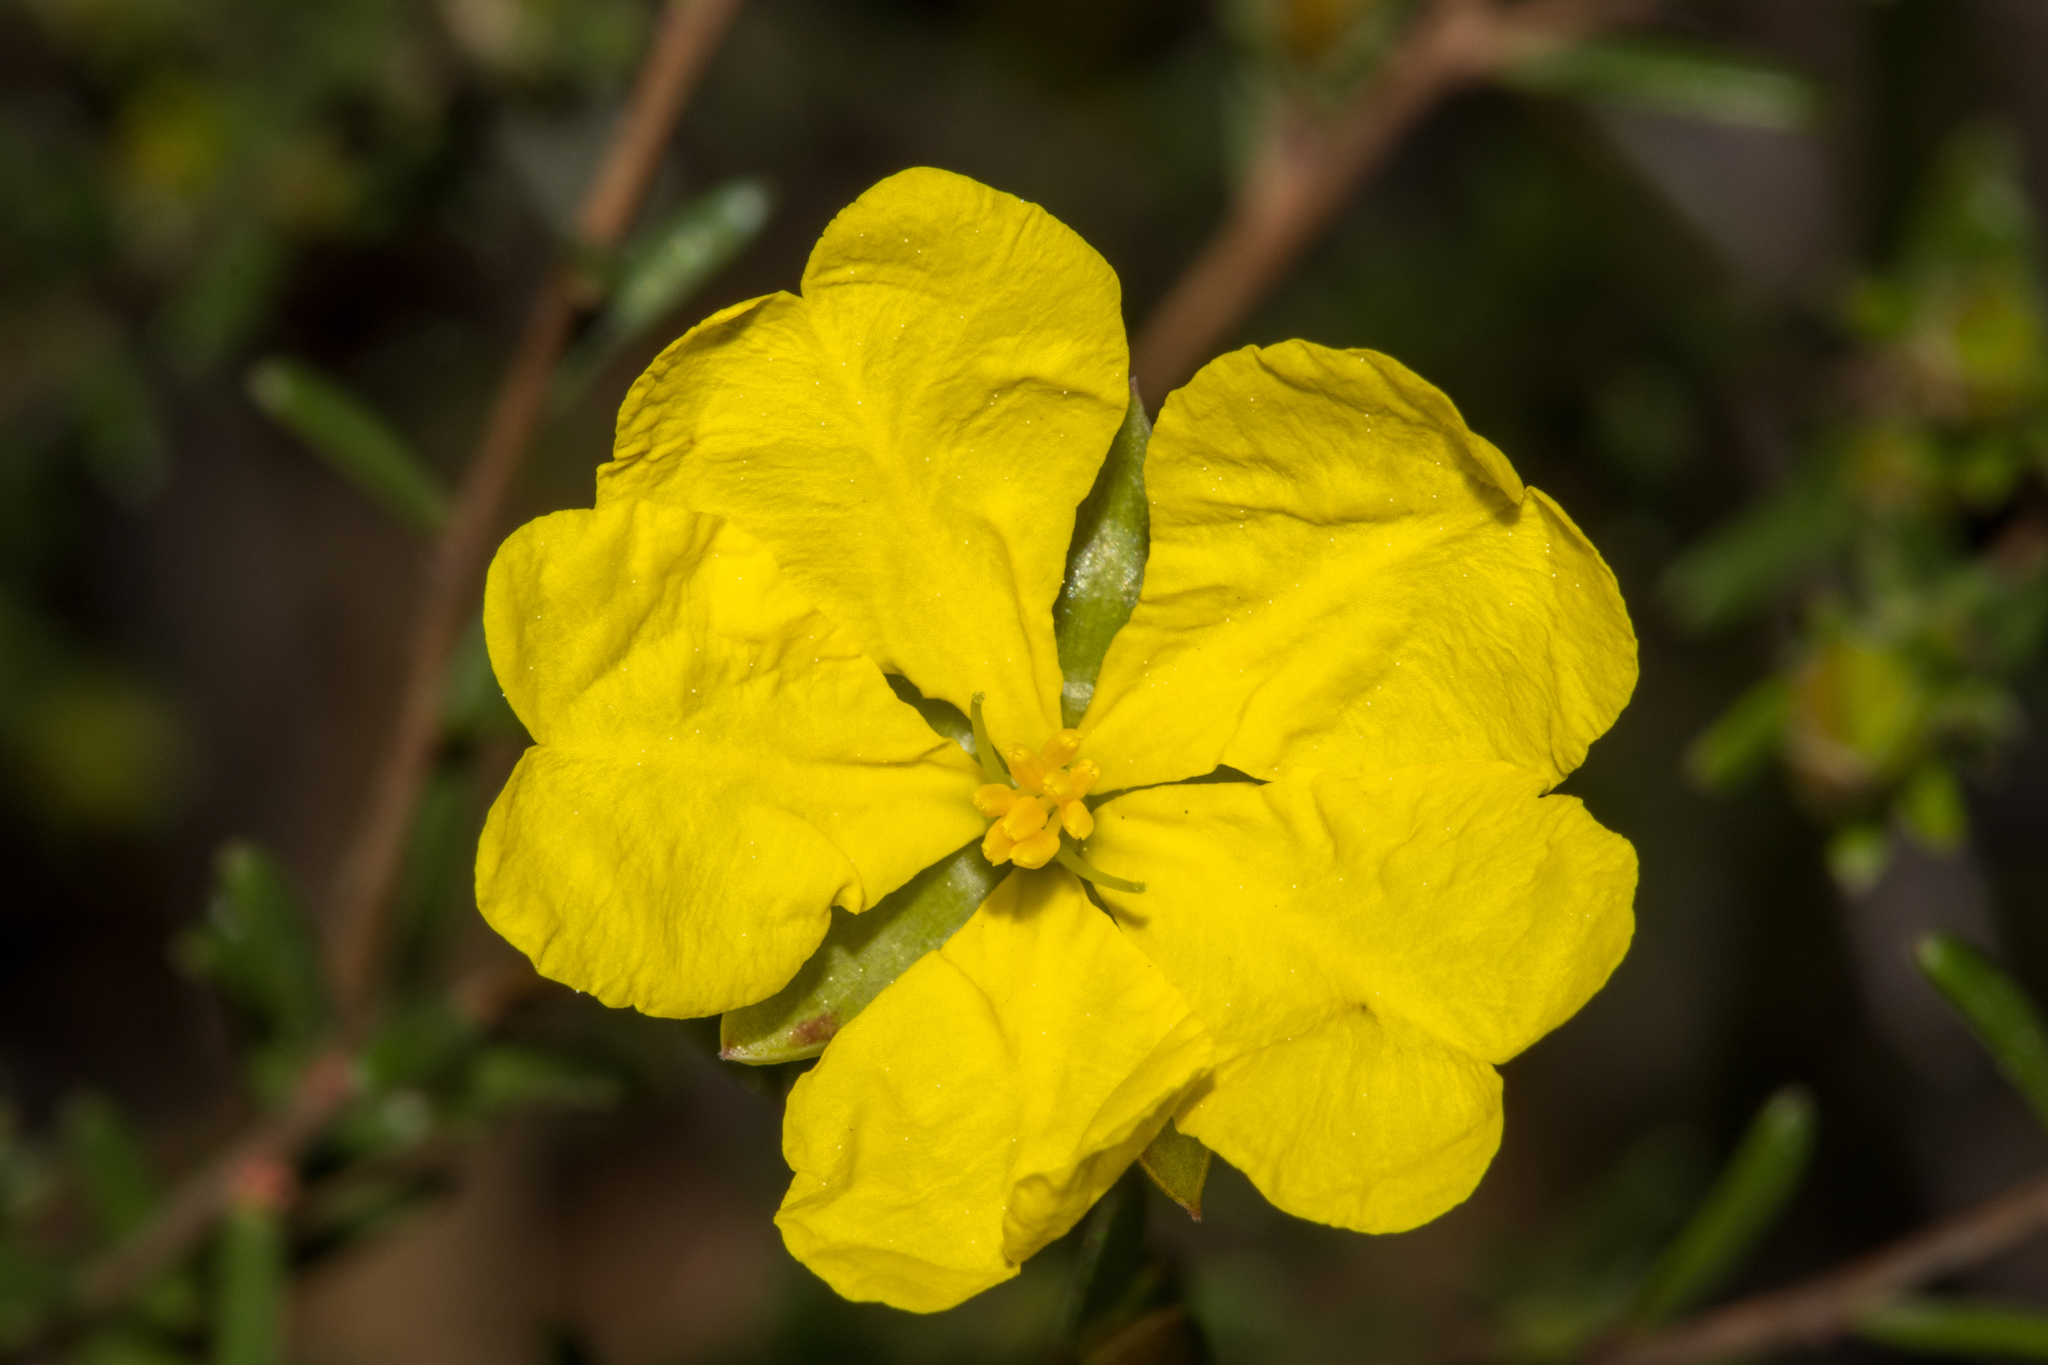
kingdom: Plantae
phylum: Tracheophyta
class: Magnoliopsida
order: Dilleniales
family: Dilleniaceae
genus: Hibbertia
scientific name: Hibbertia devitata
